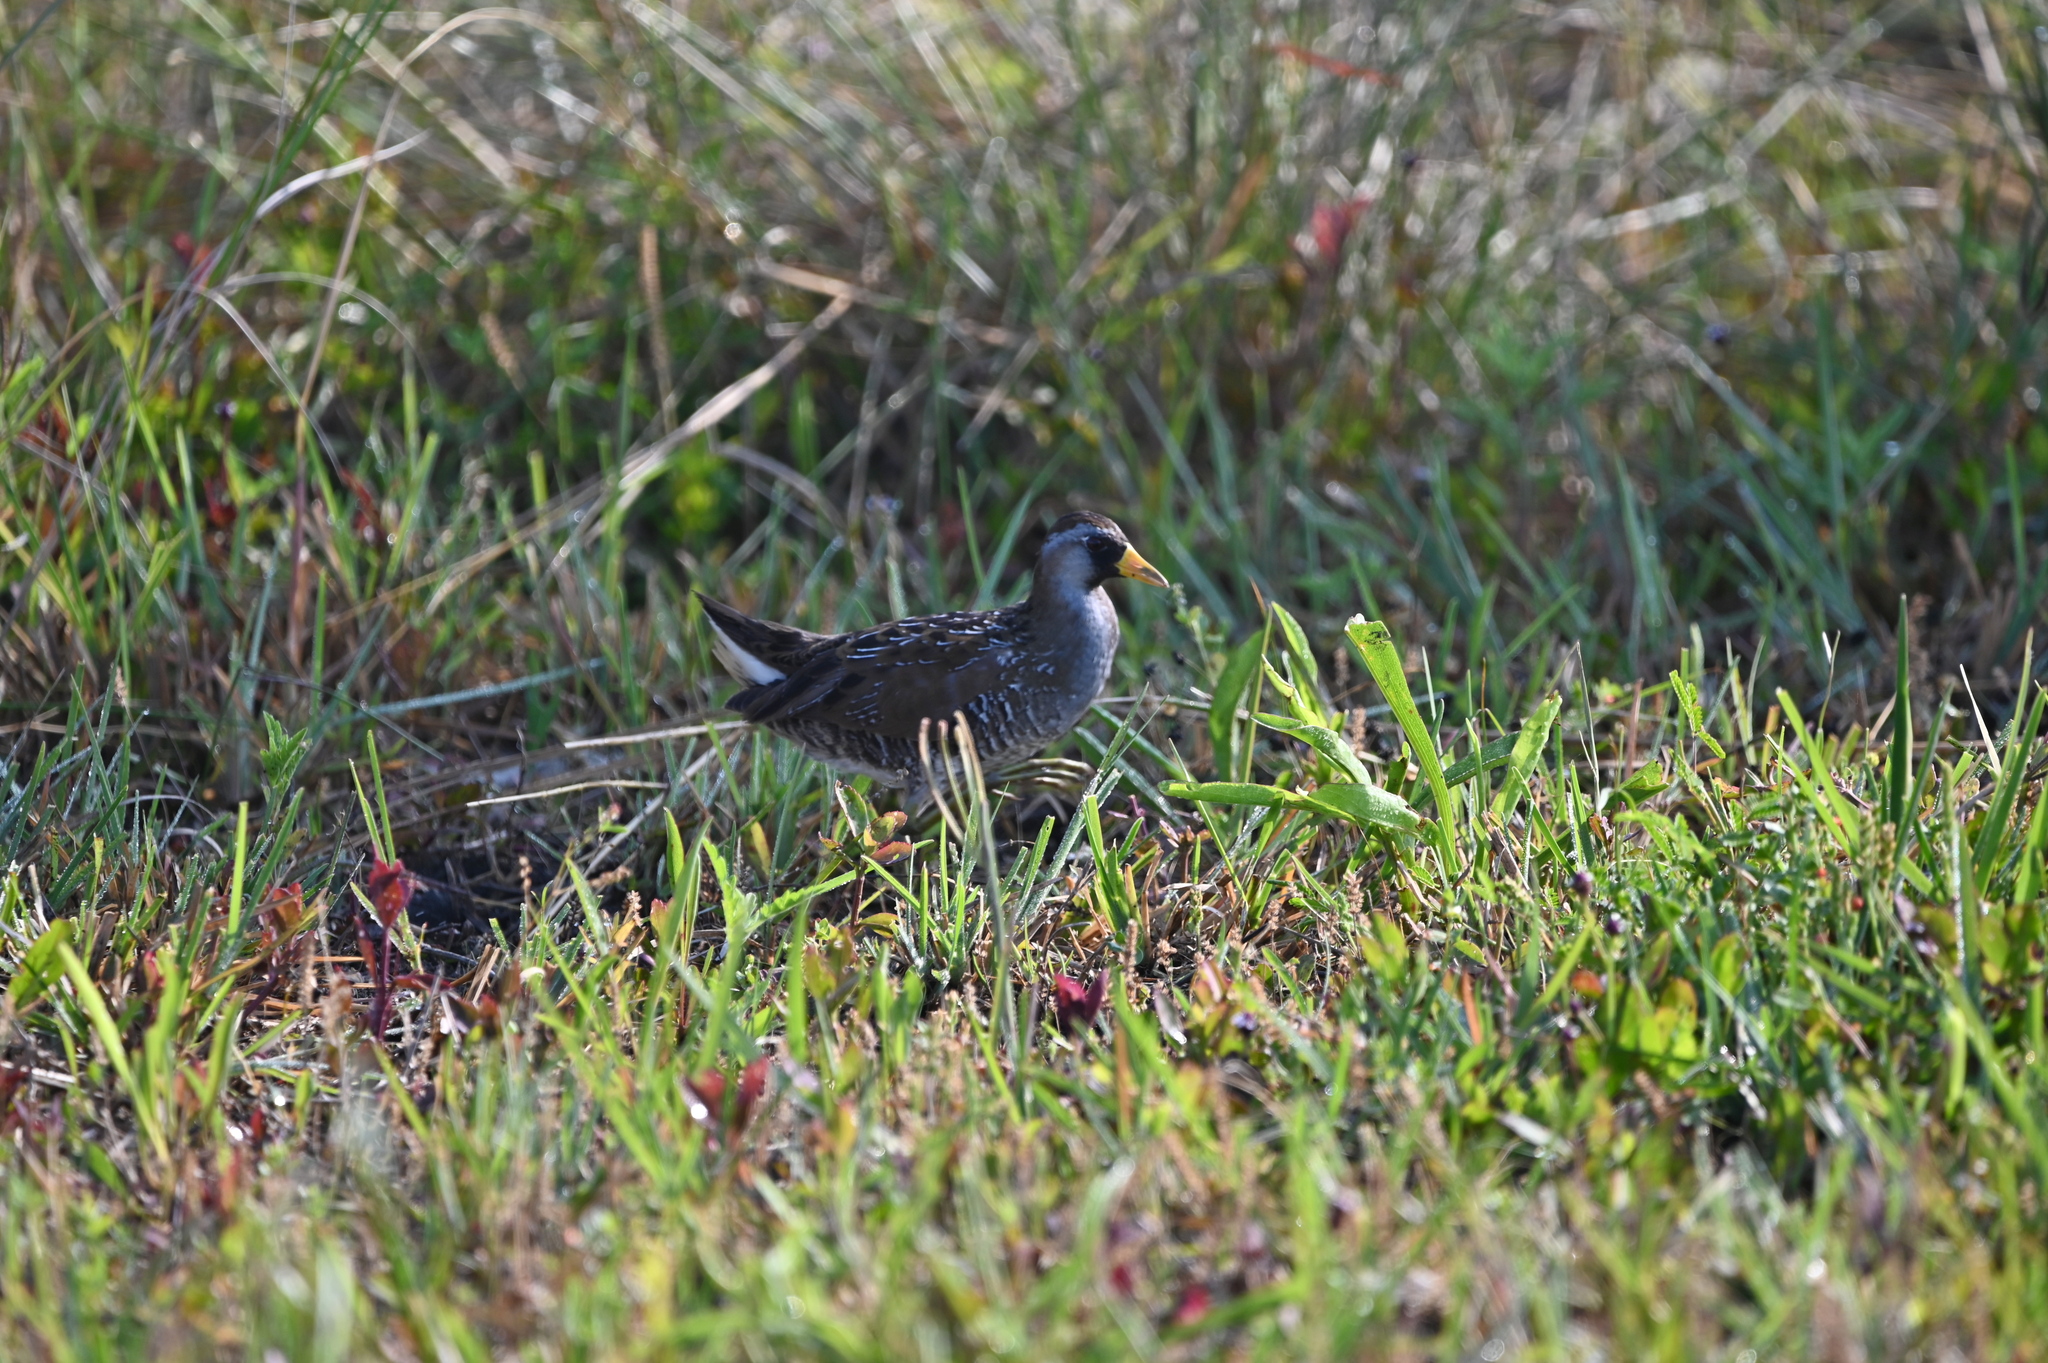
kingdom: Animalia
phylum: Chordata
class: Aves
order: Gruiformes
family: Rallidae
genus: Porzana
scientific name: Porzana carolina
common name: Sora
